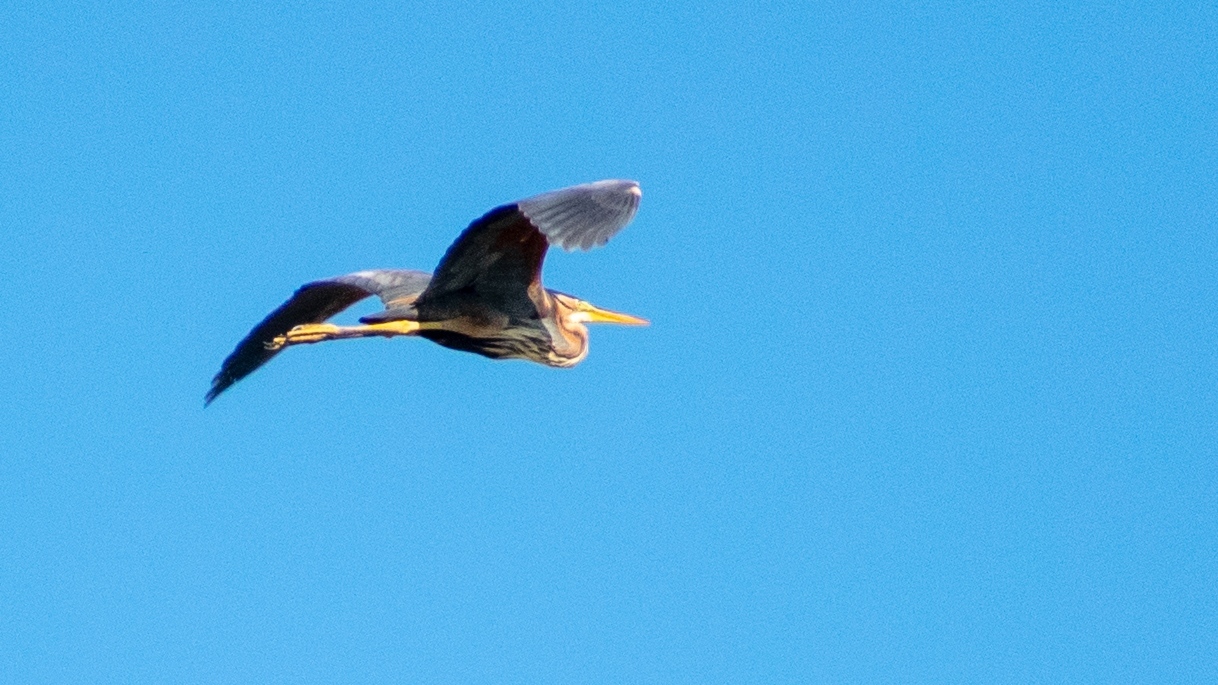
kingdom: Animalia
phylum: Chordata
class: Aves
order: Pelecaniformes
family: Ardeidae
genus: Ardea
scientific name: Ardea purpurea
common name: Purple heron
